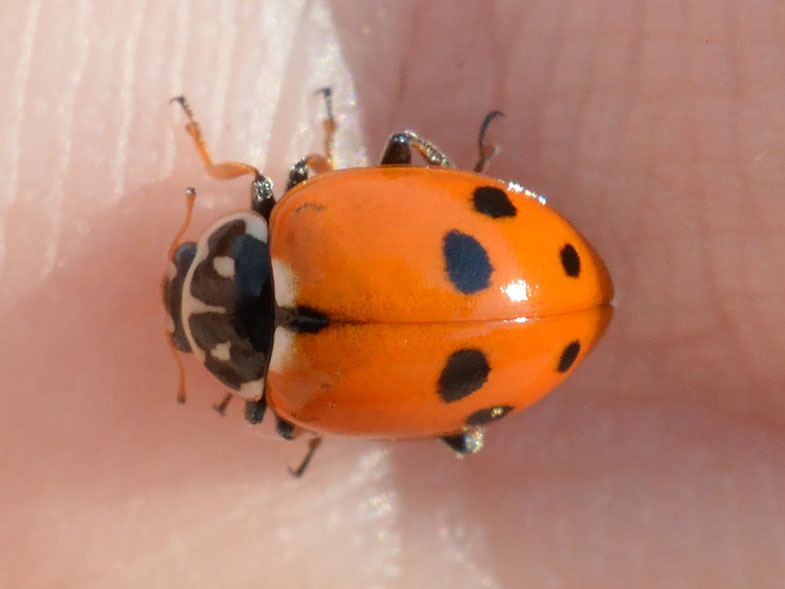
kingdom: Animalia
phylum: Arthropoda
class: Insecta
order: Coleoptera
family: Coccinellidae
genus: Hippodamia
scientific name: Hippodamia variegata
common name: Ladybird beetle
